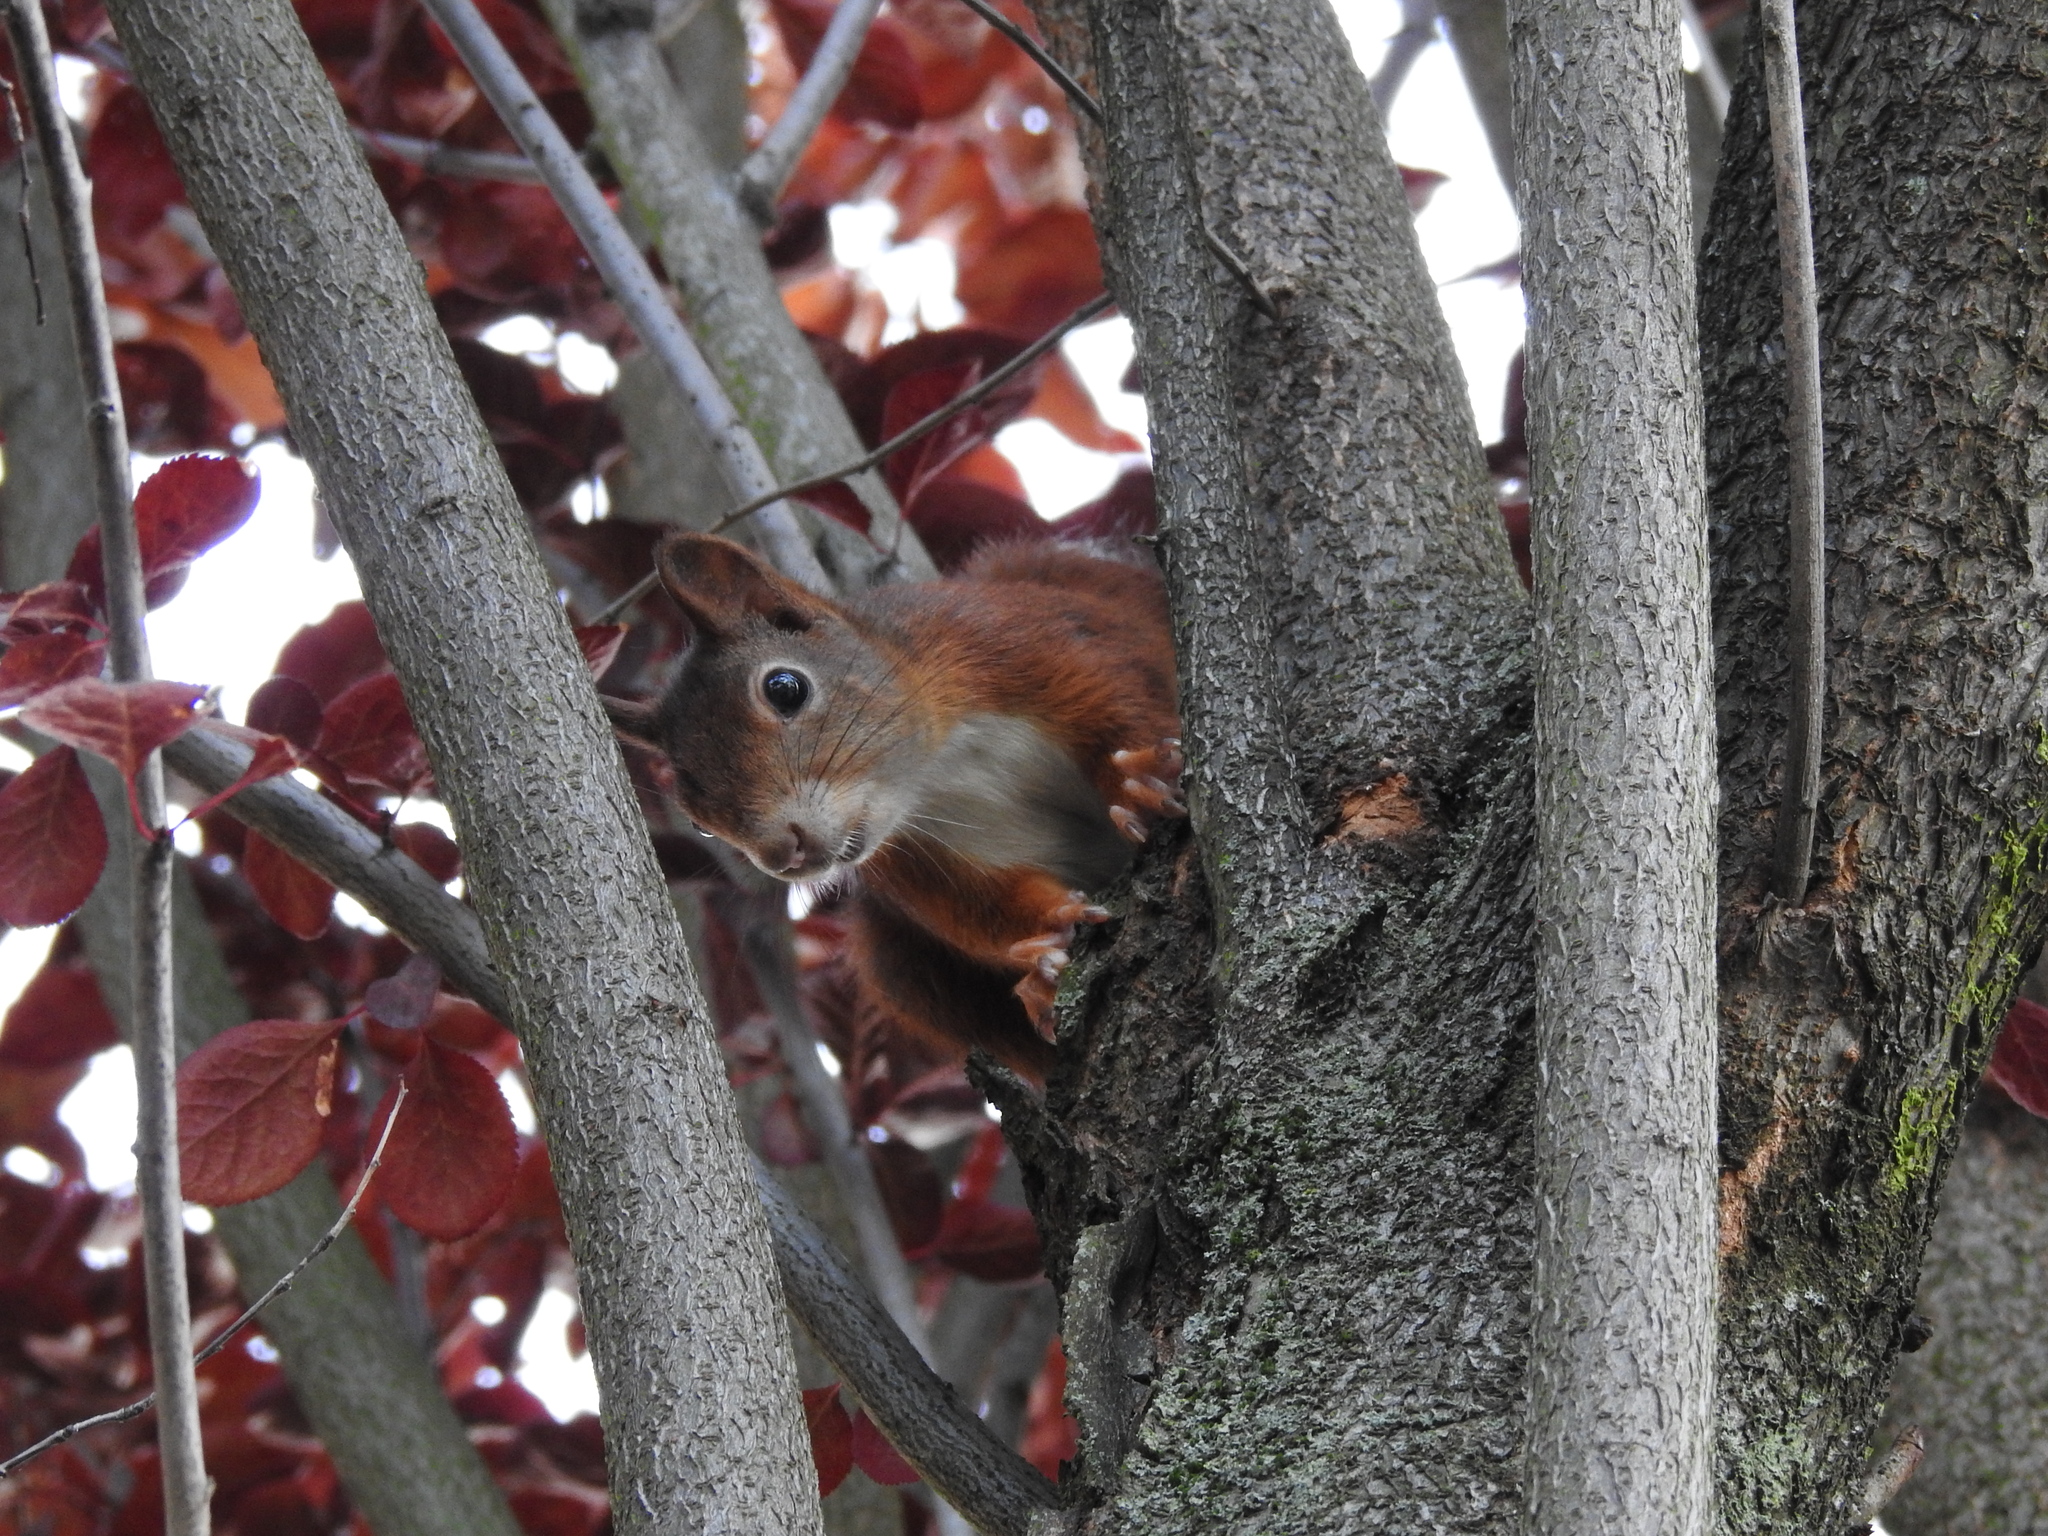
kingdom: Animalia
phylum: Chordata
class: Mammalia
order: Rodentia
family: Sciuridae
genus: Sciurus
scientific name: Sciurus vulgaris
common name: Eurasian red squirrel
